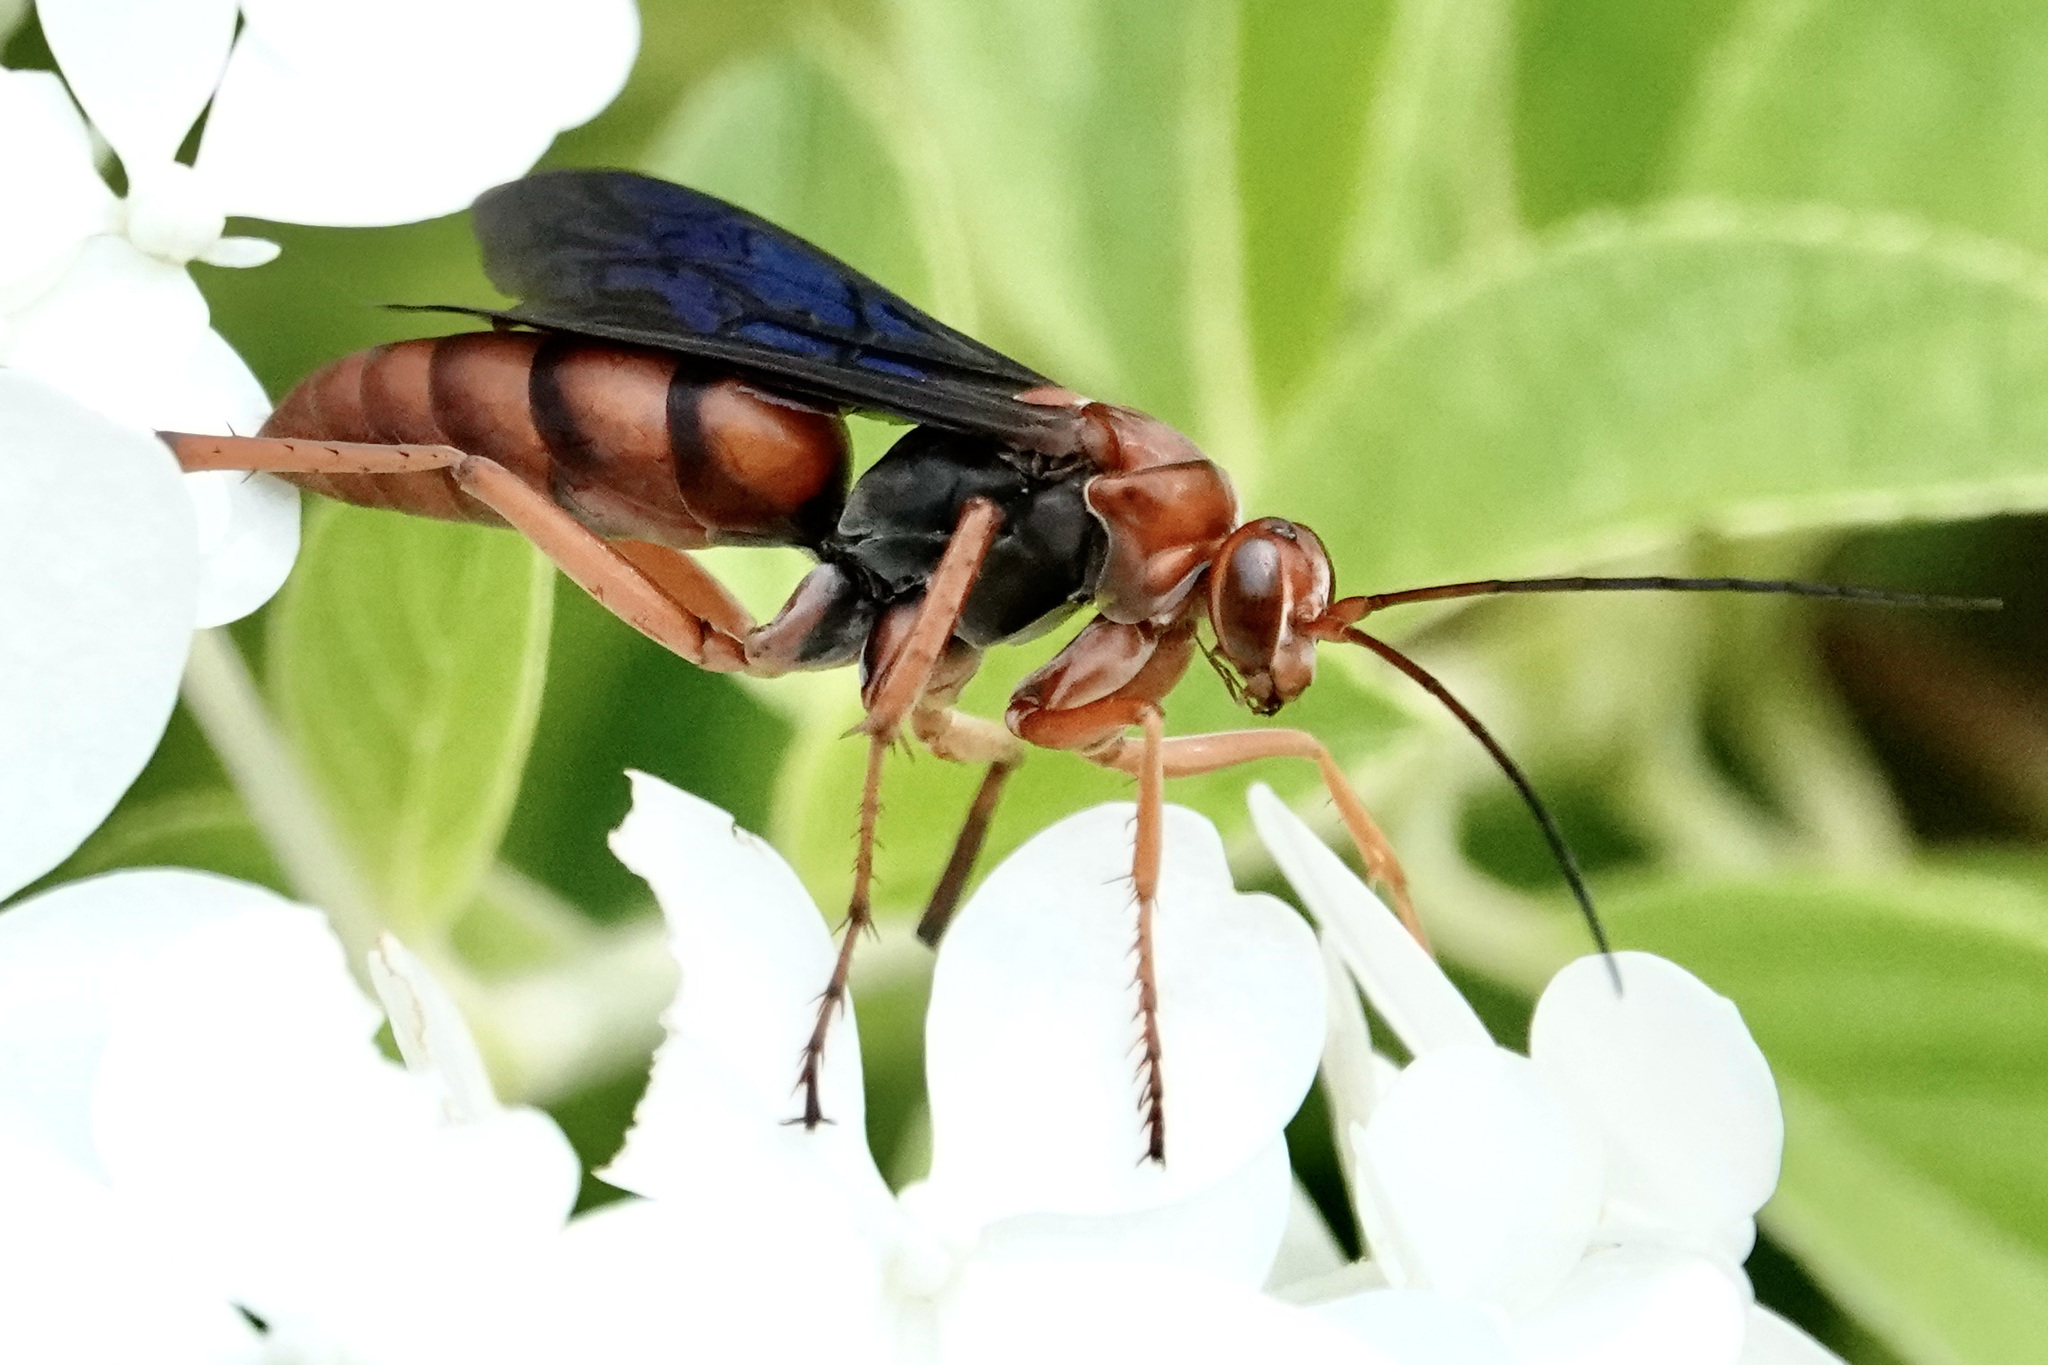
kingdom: Animalia
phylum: Arthropoda
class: Insecta
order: Hymenoptera
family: Pompilidae
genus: Tachypompilus
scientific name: Tachypompilus ferrugineus
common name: Rusty spider wasp
